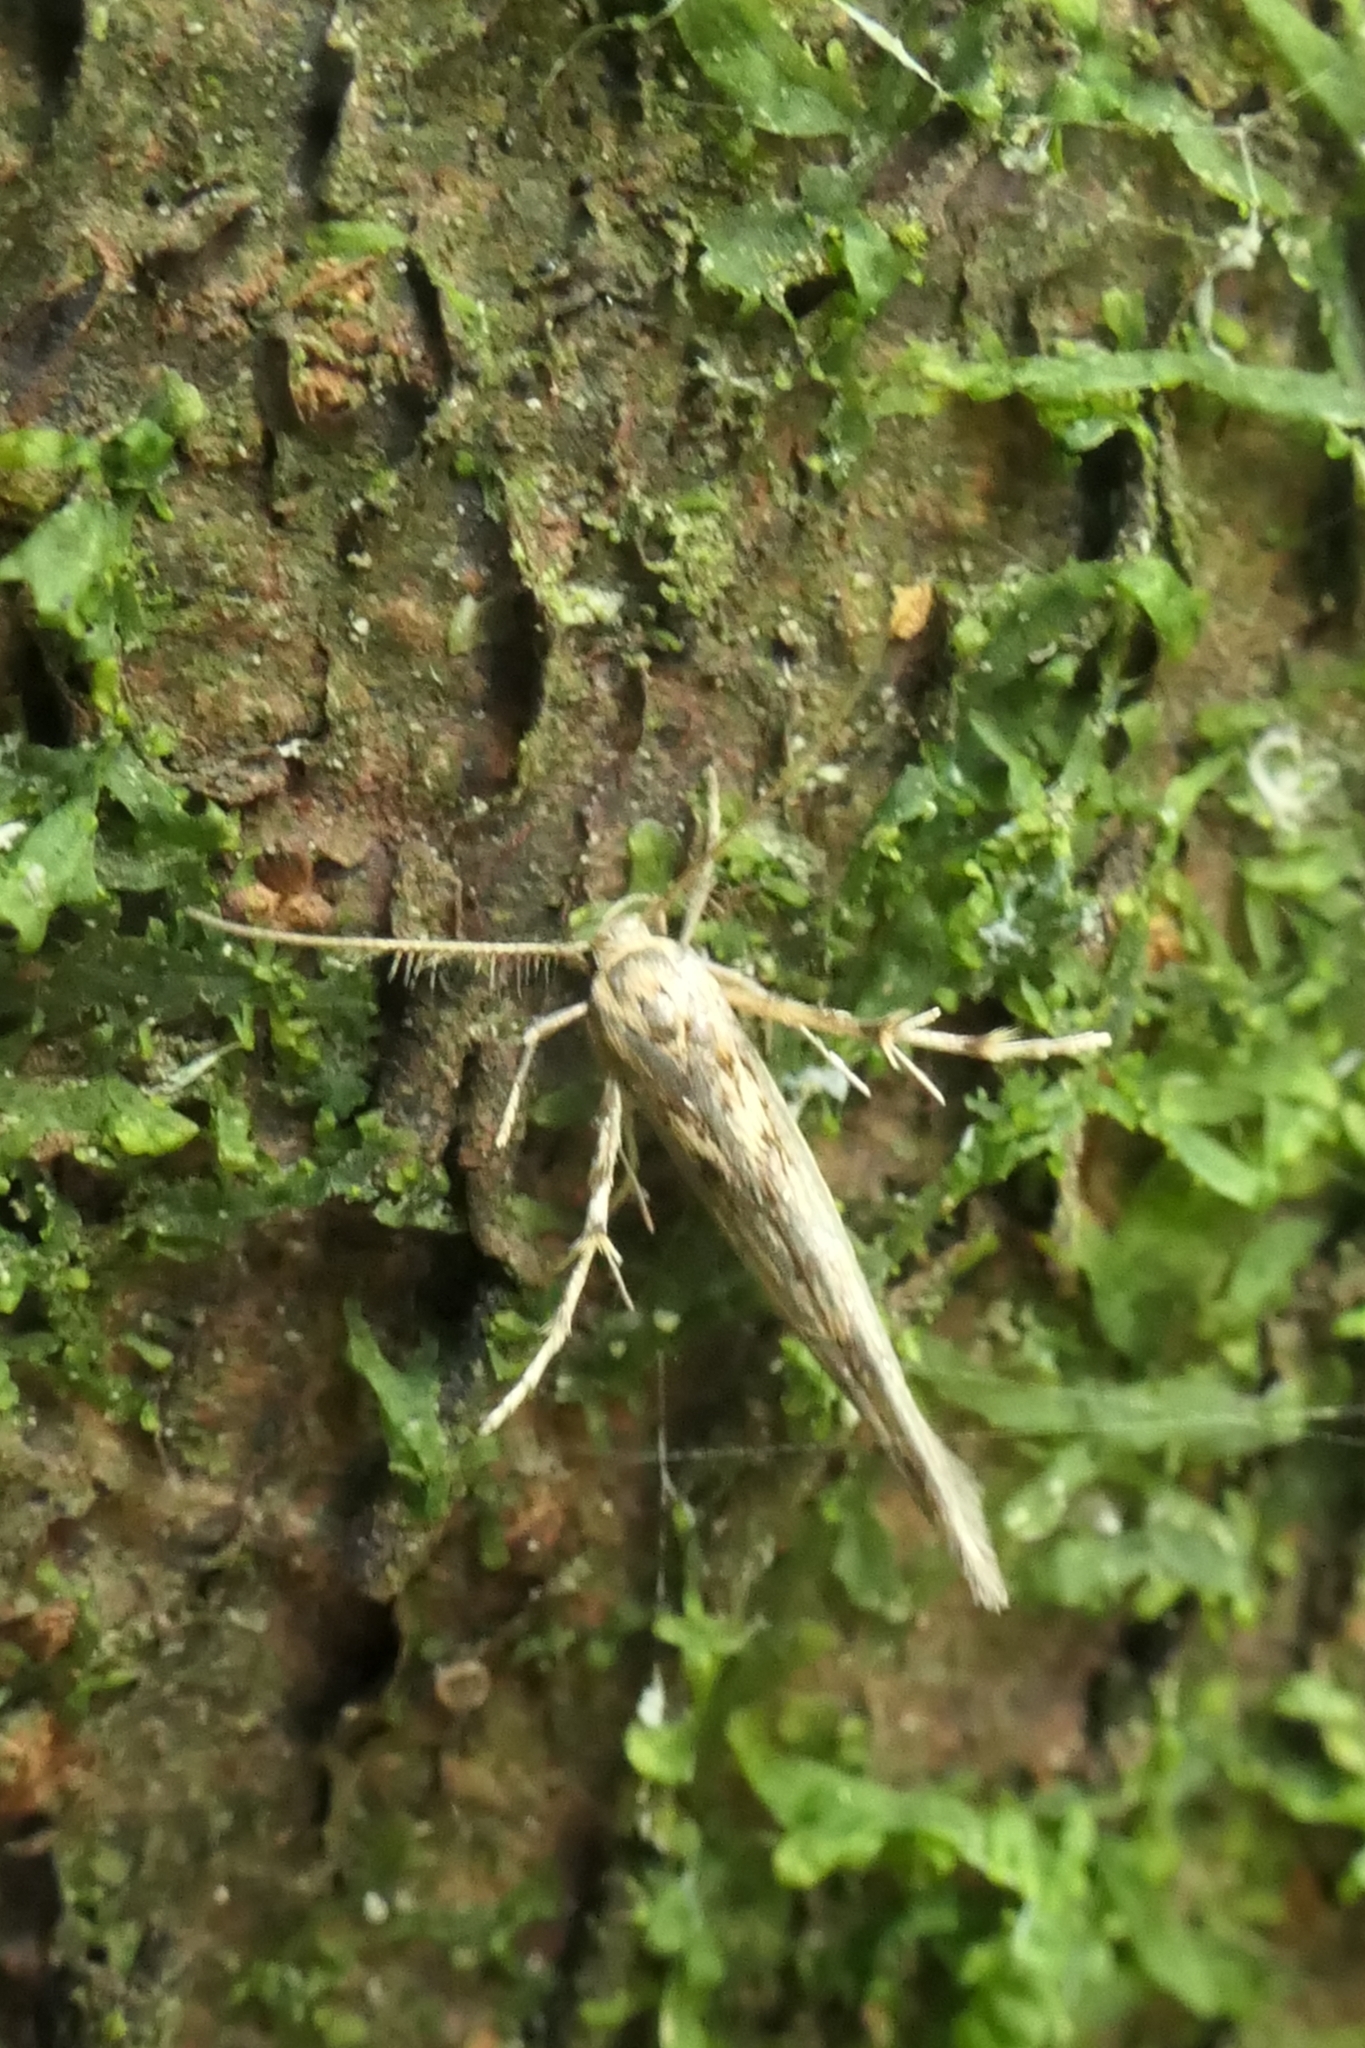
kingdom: Animalia
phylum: Arthropoda
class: Insecta
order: Lepidoptera
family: Stathmopodidae
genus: Stathmopoda
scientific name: Stathmopoda plumbiflua
